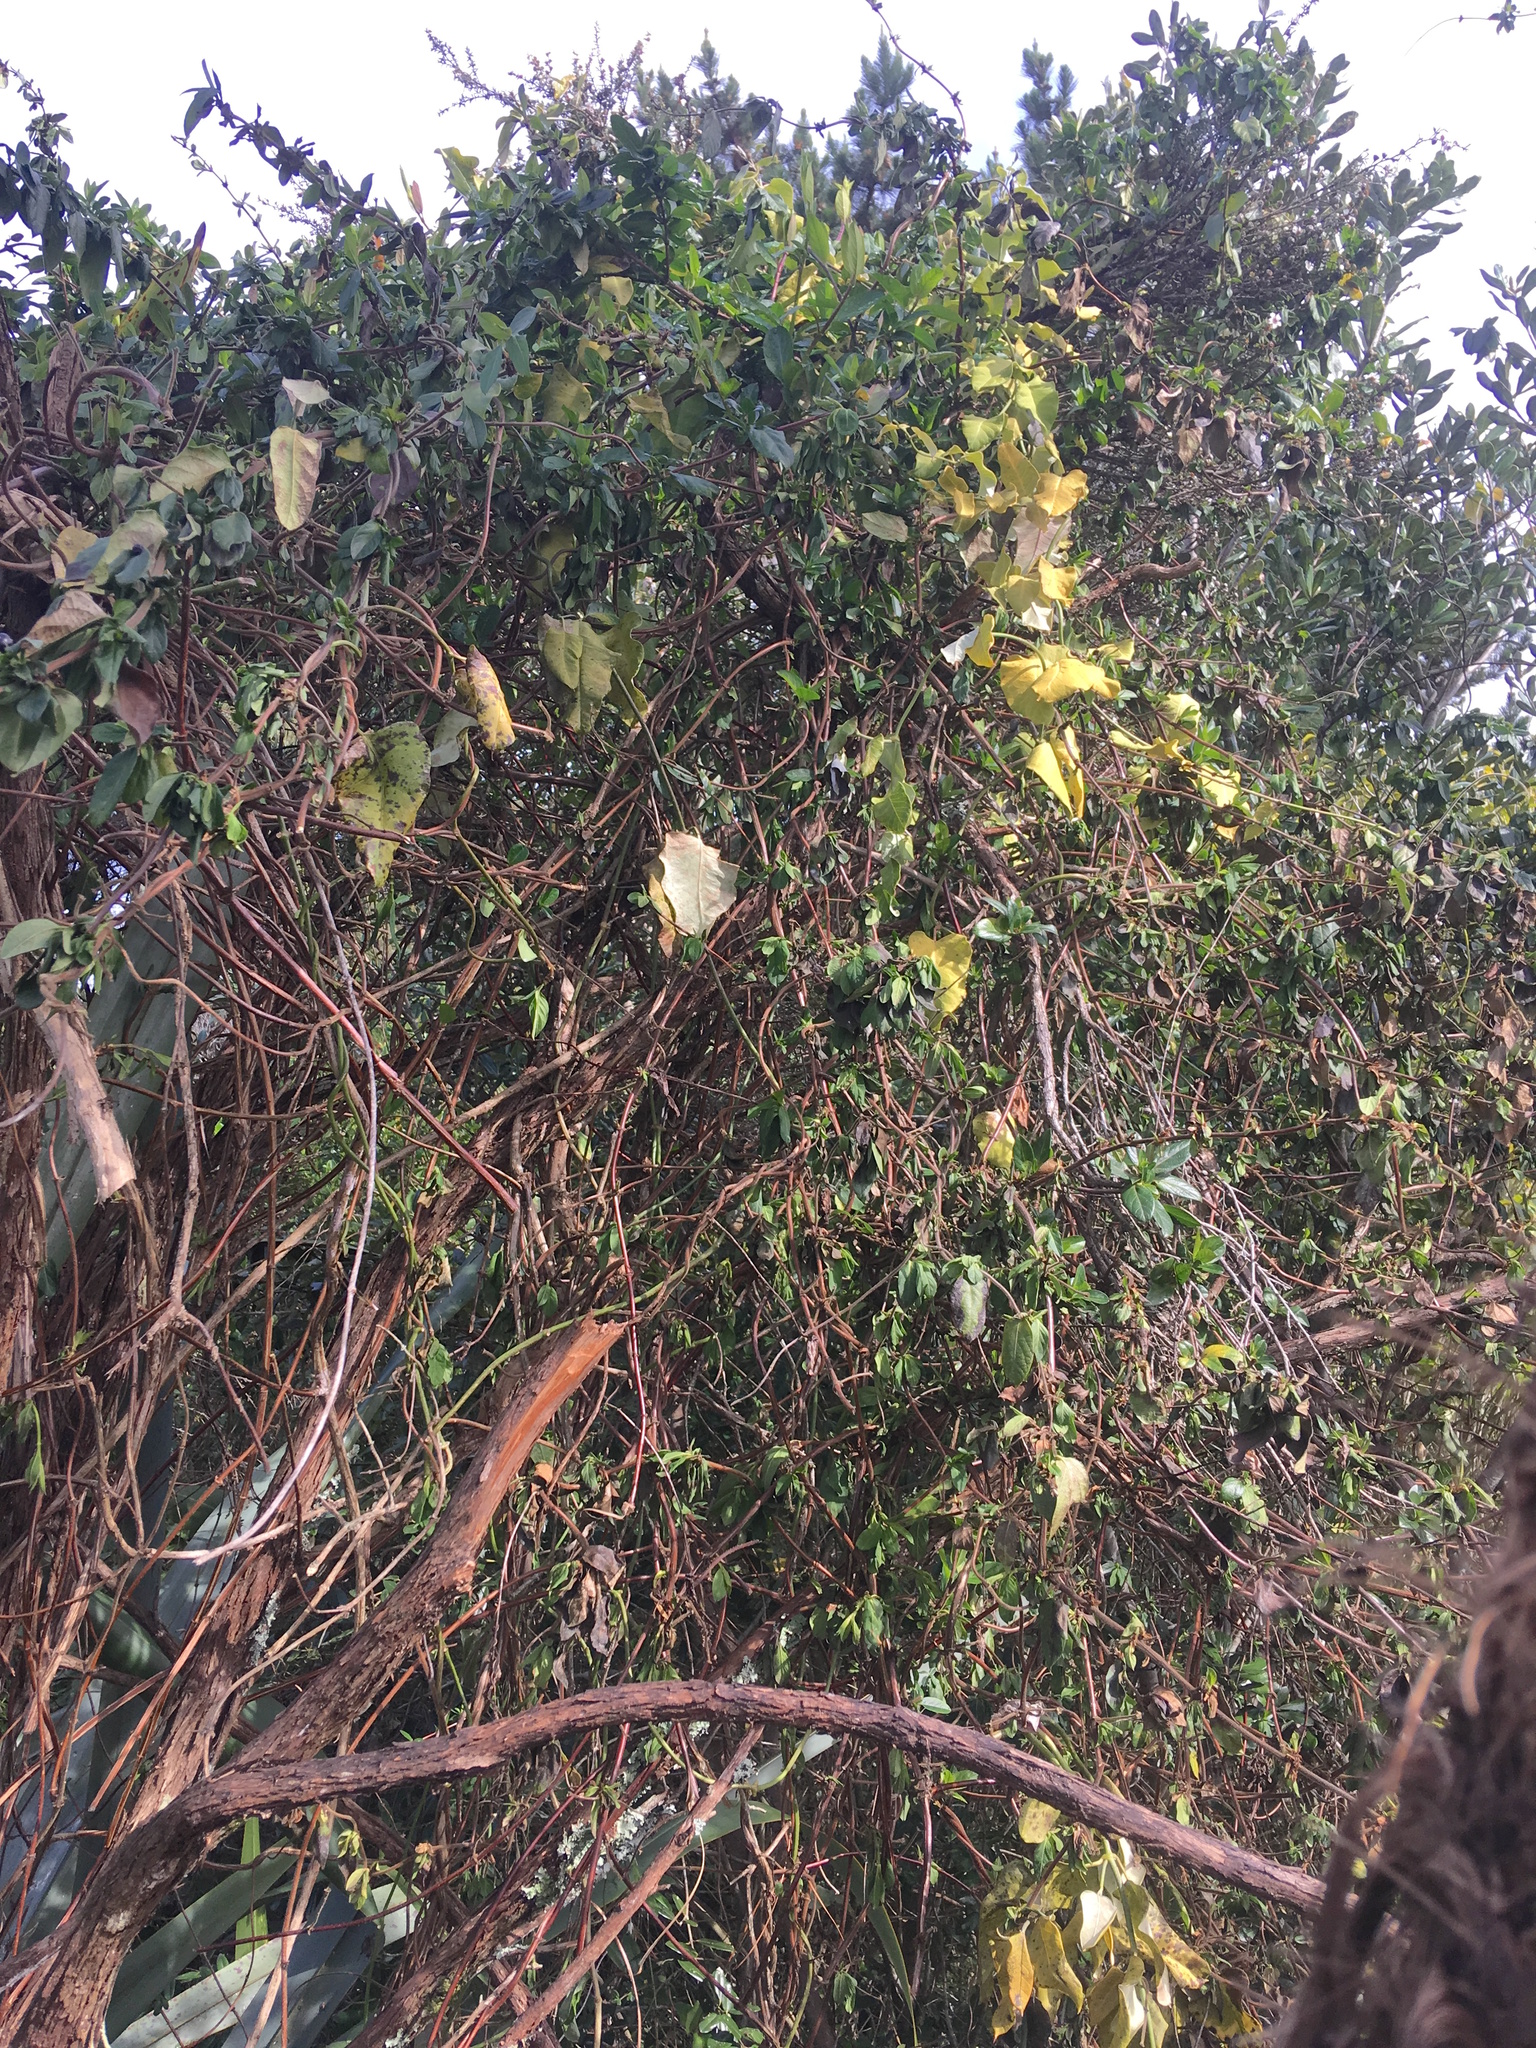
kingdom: Plantae
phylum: Tracheophyta
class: Magnoliopsida
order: Gentianales
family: Apocynaceae
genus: Araujia
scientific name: Araujia sericifera
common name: White bladderflower
